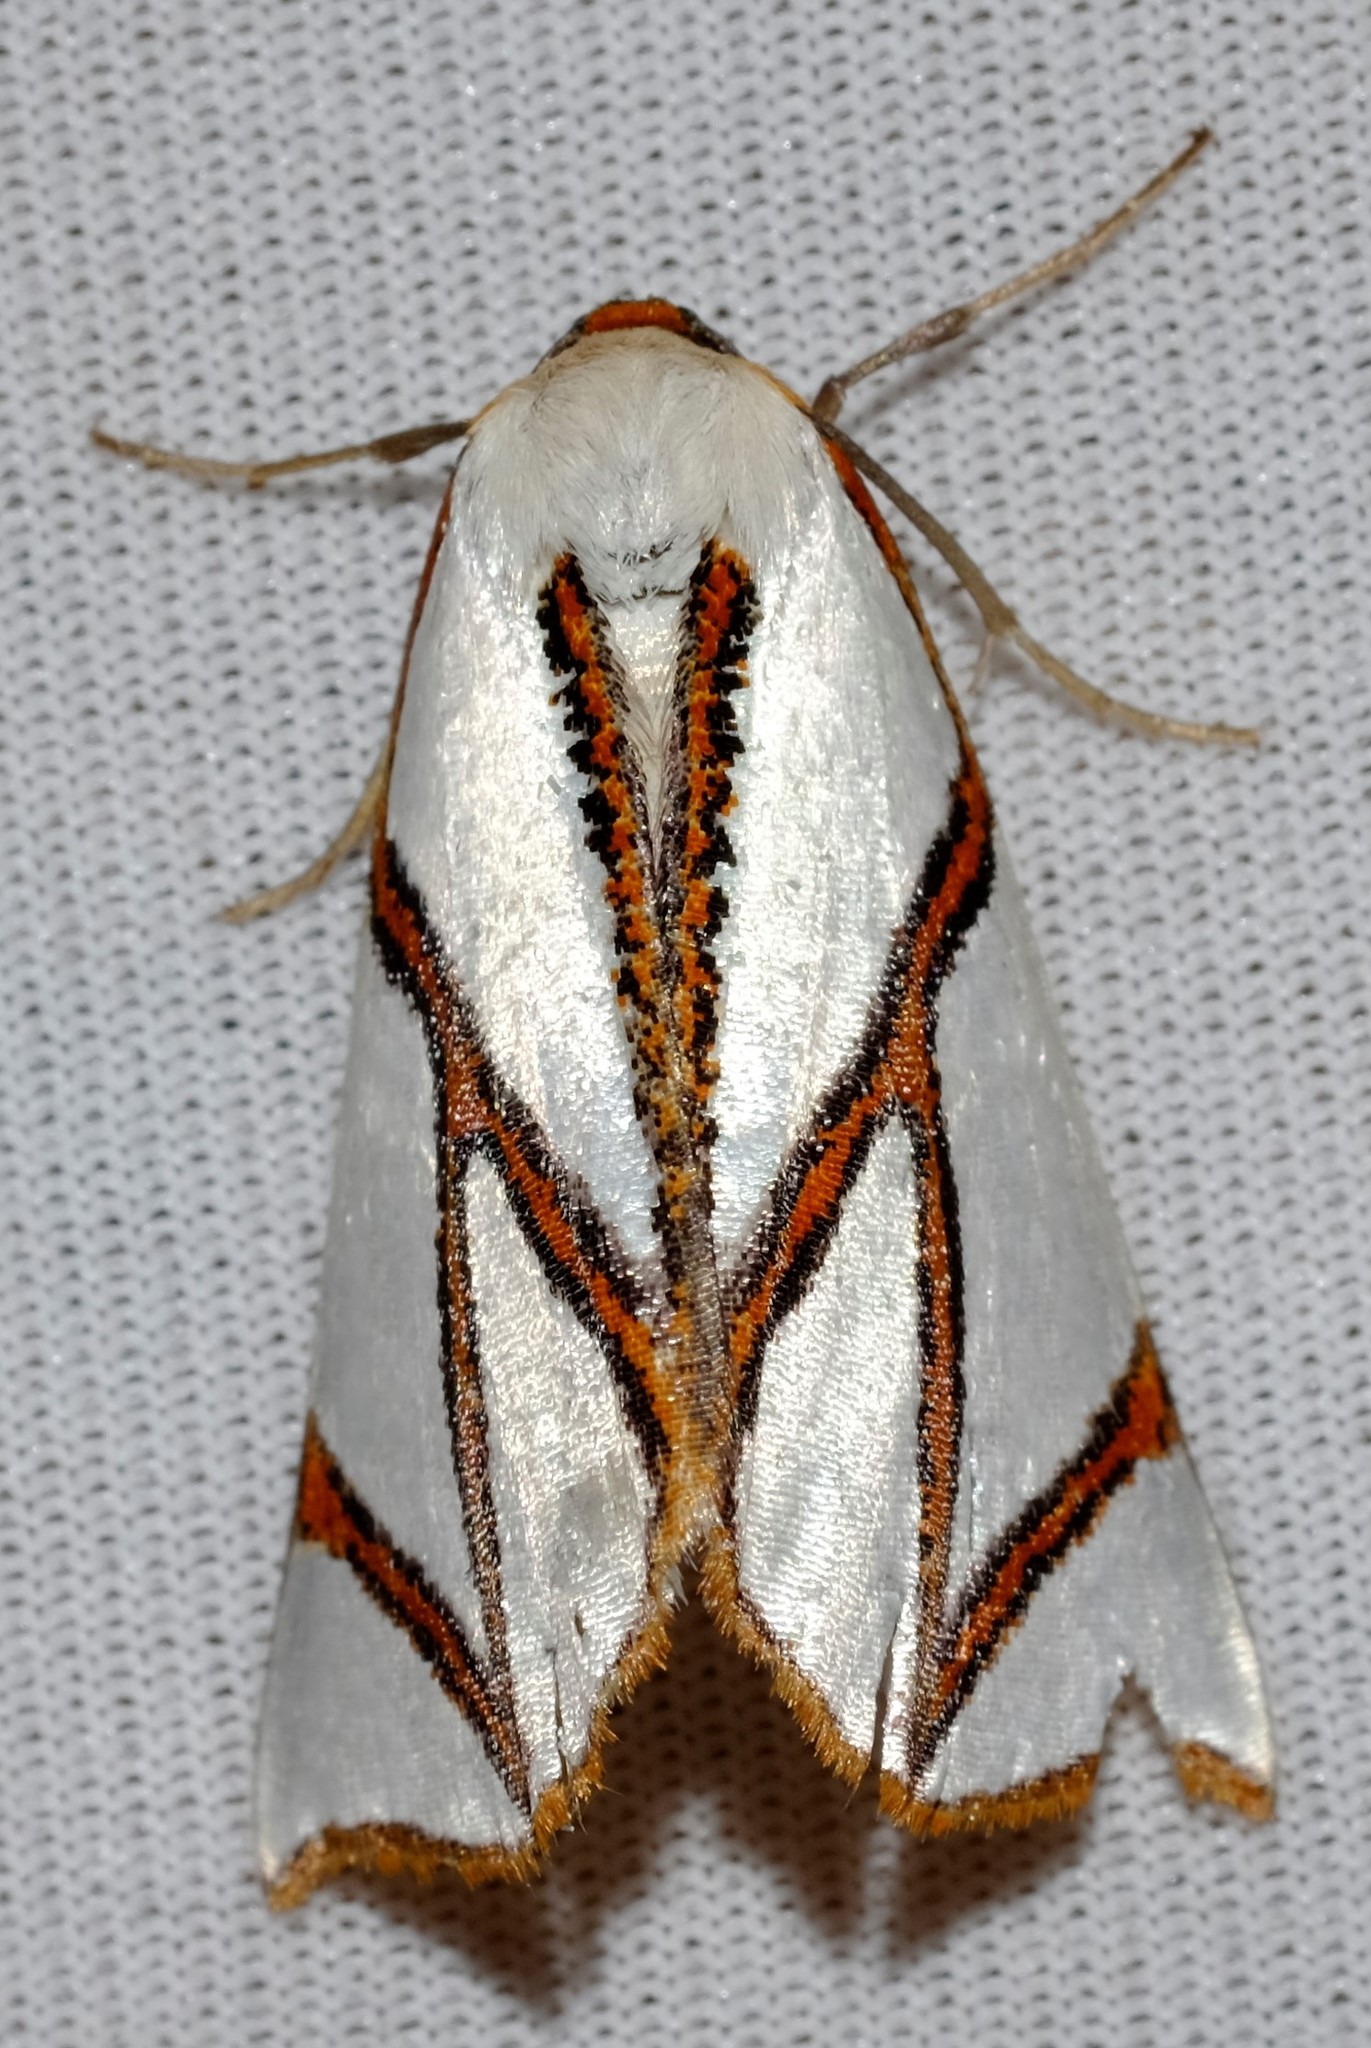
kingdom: Animalia
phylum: Arthropoda
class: Insecta
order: Lepidoptera
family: Geometridae
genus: Thalaina
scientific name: Thalaina clara
